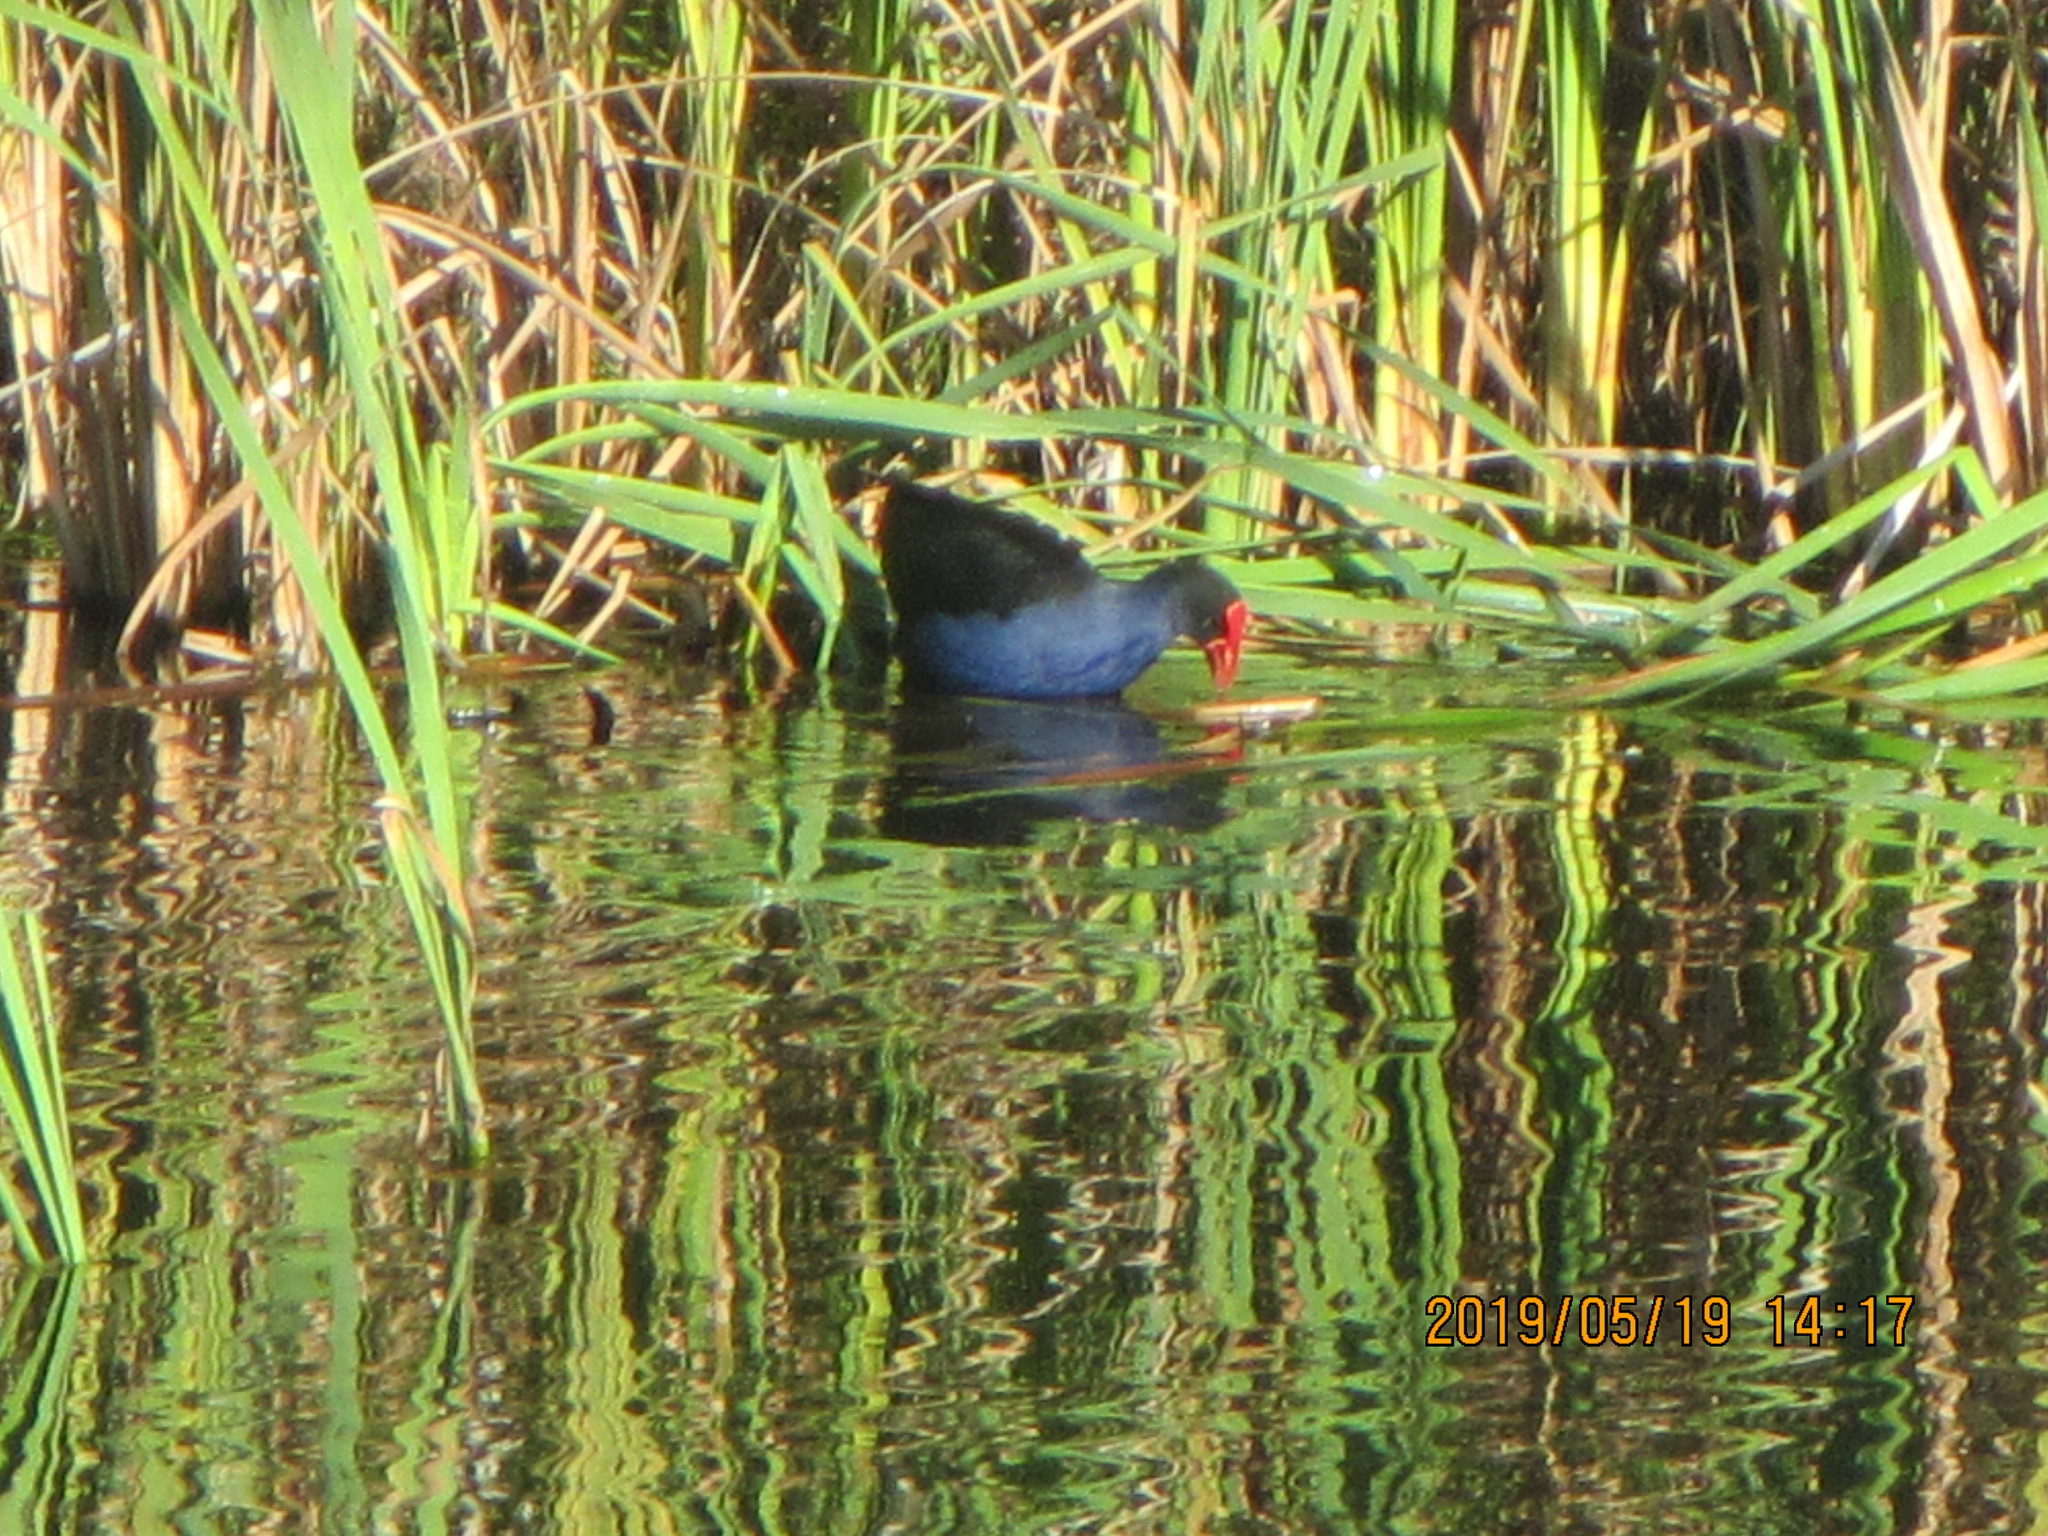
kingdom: Animalia
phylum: Chordata
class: Aves
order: Gruiformes
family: Rallidae
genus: Porphyrio
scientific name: Porphyrio melanotus
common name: Australasian swamphen
